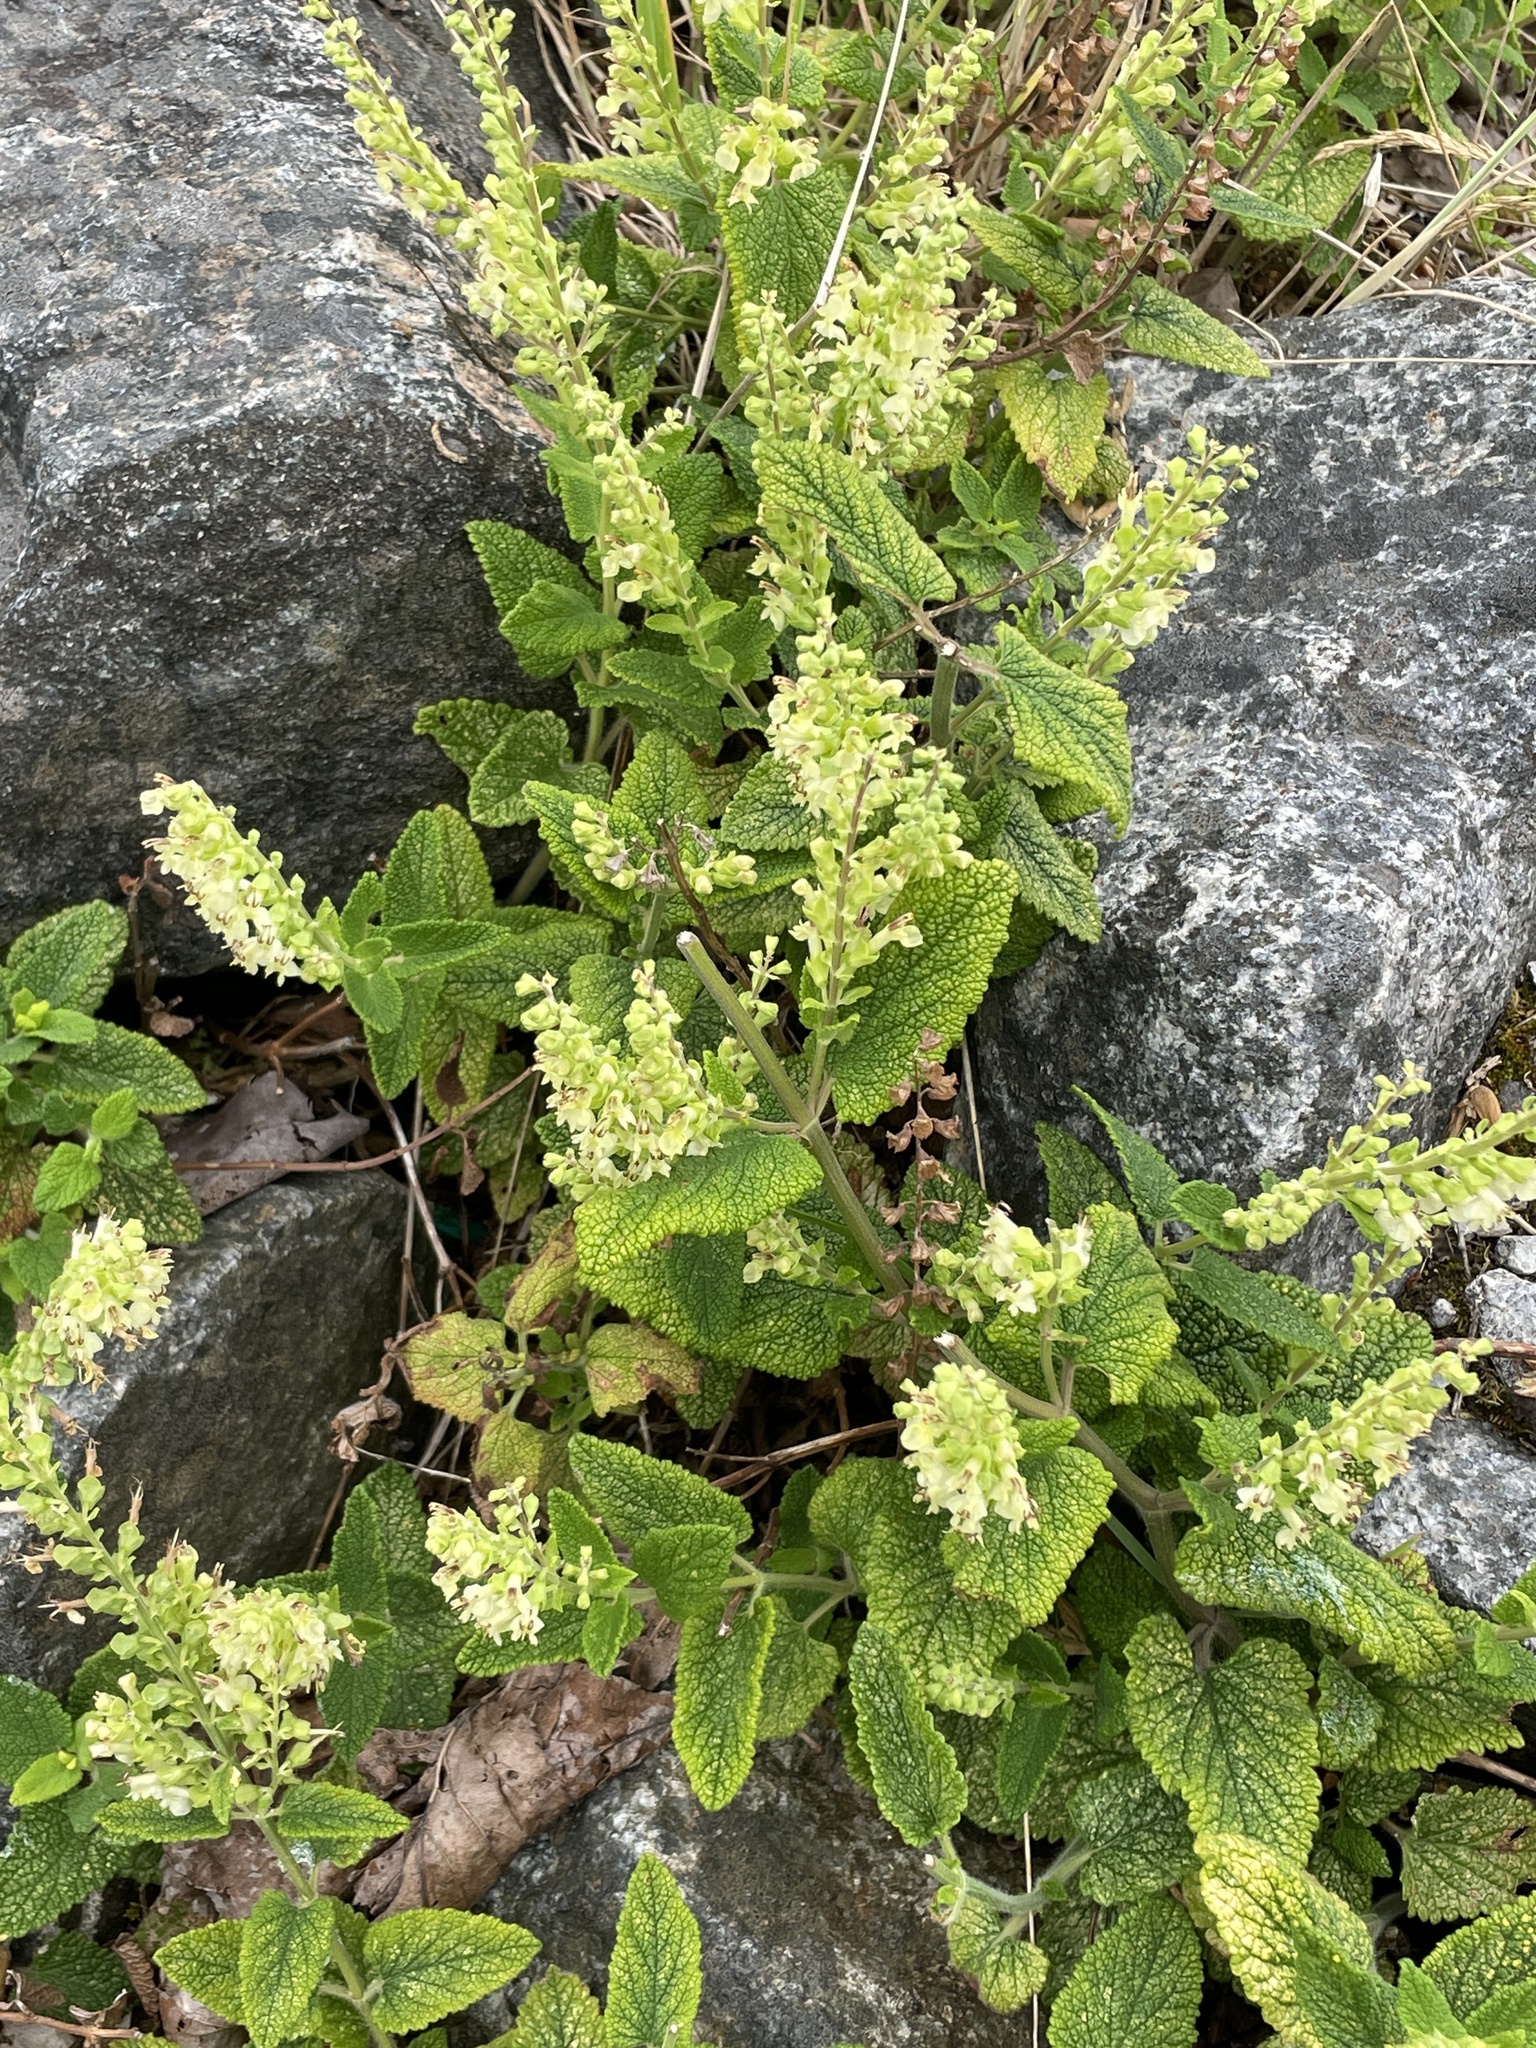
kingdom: Plantae
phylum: Tracheophyta
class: Magnoliopsida
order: Lamiales
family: Lamiaceae
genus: Teucrium
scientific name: Teucrium scorodonia
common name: Woodland germander
